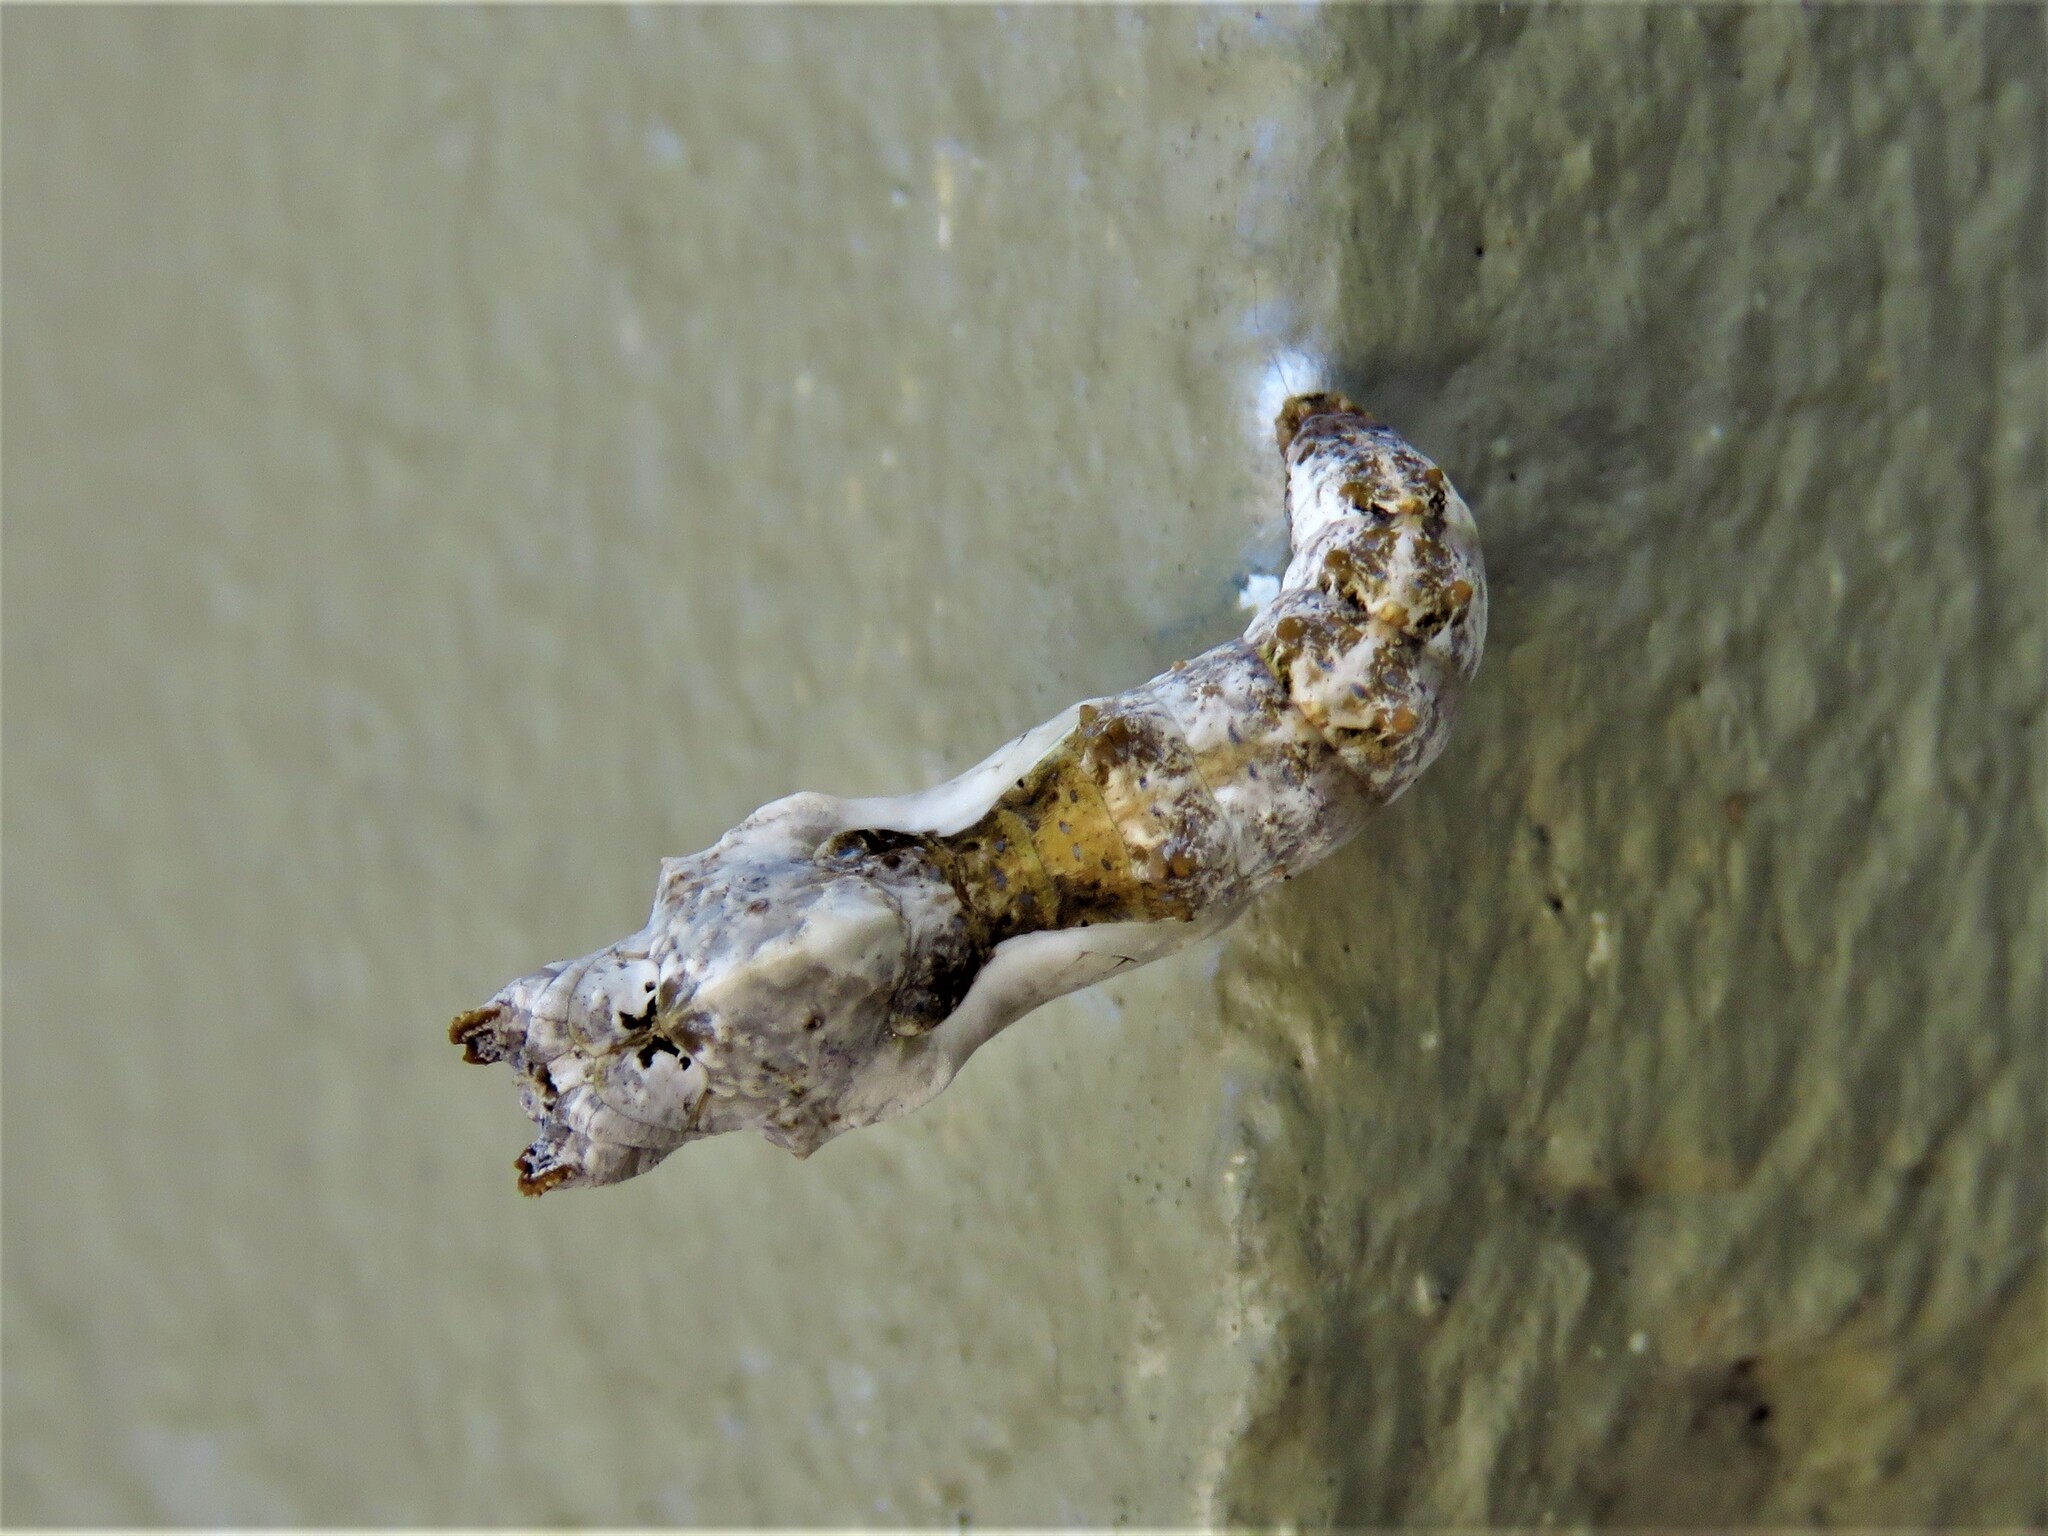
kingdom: Animalia
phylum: Arthropoda
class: Insecta
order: Lepidoptera
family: Nymphalidae
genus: Dione
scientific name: Dione vanillae
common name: Gulf fritillary
